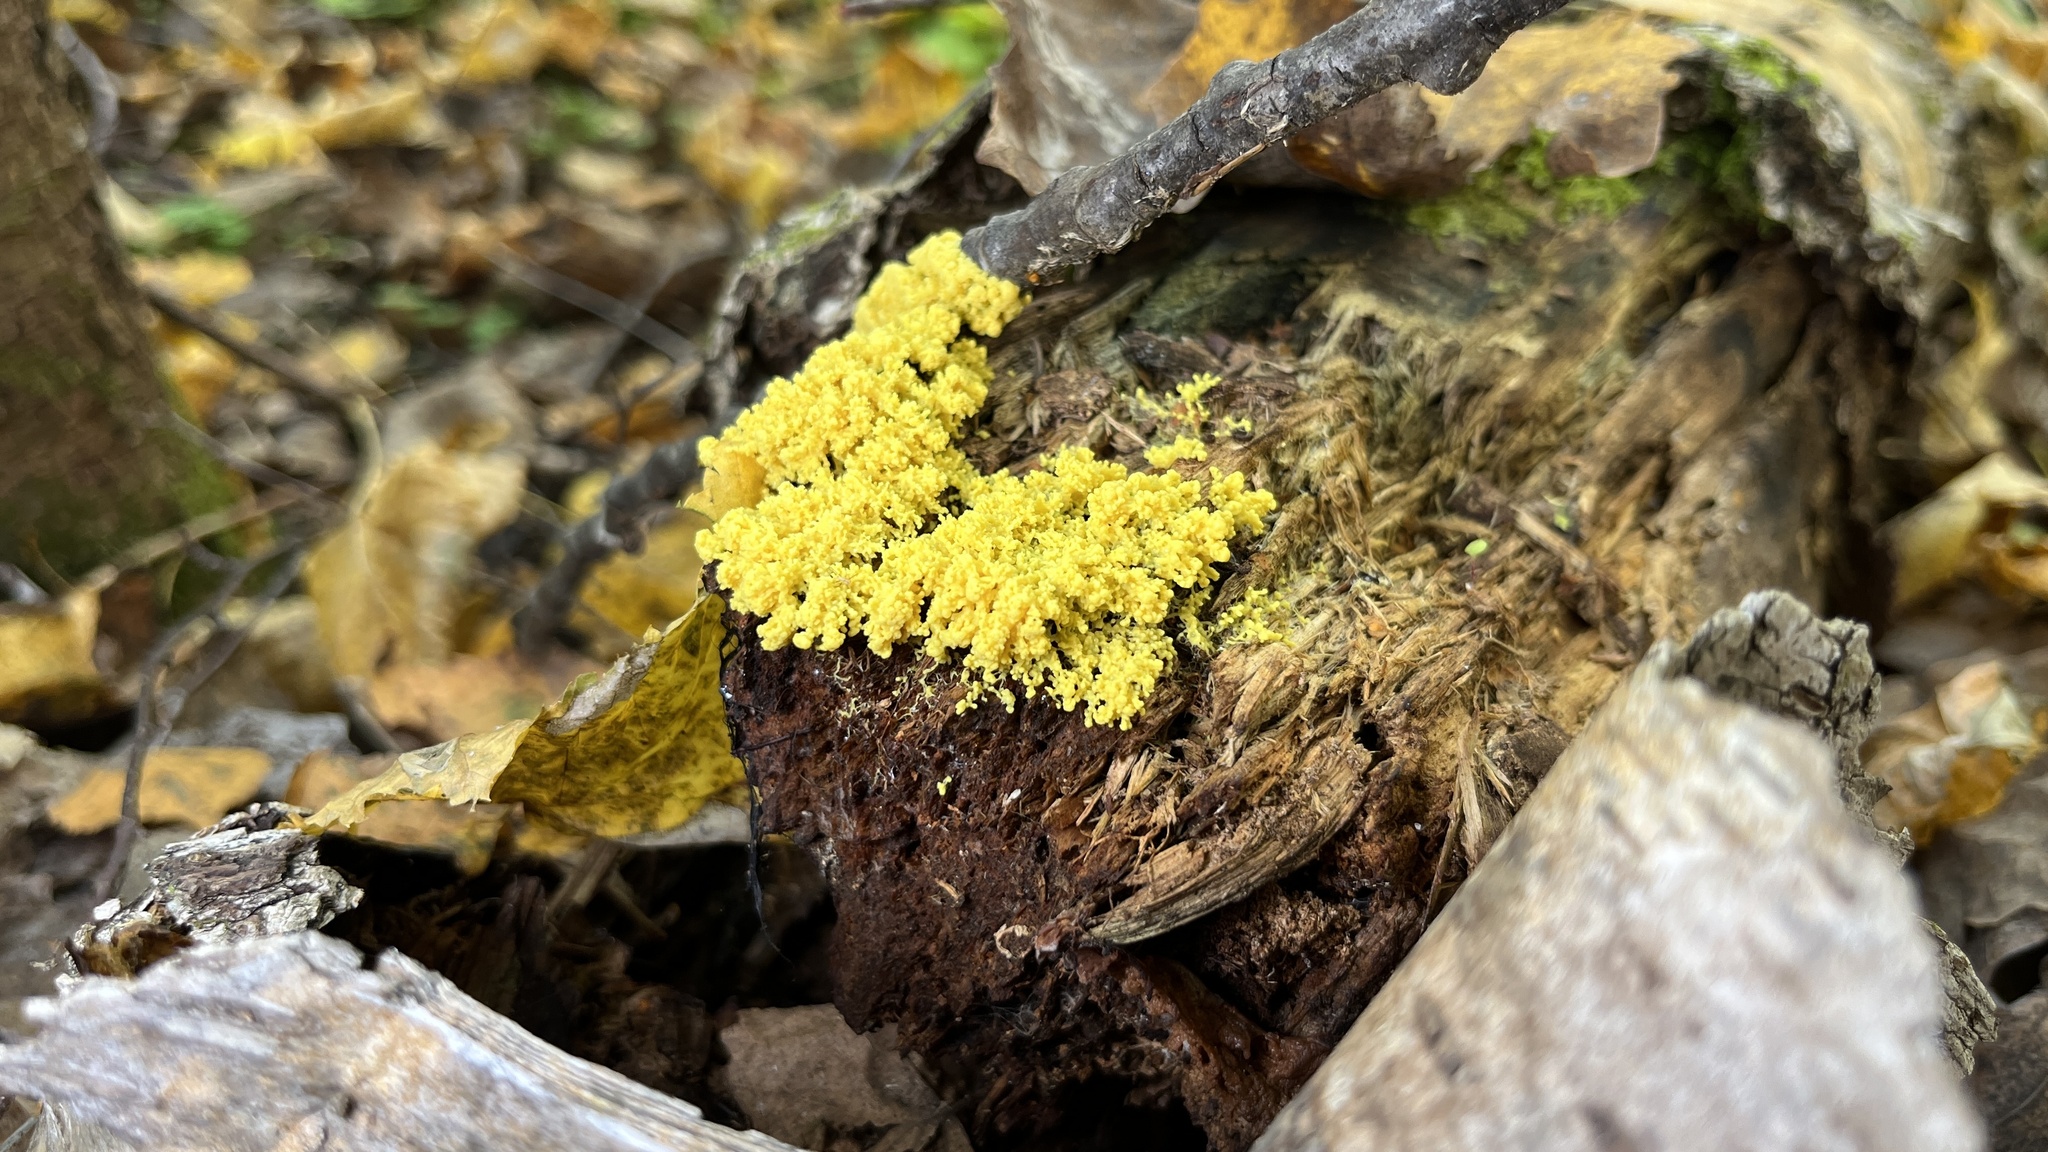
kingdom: Protozoa
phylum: Mycetozoa
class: Myxomycetes
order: Physarales
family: Physaraceae
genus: Fuligo
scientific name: Fuligo septica
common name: Dog vomit slime mold
